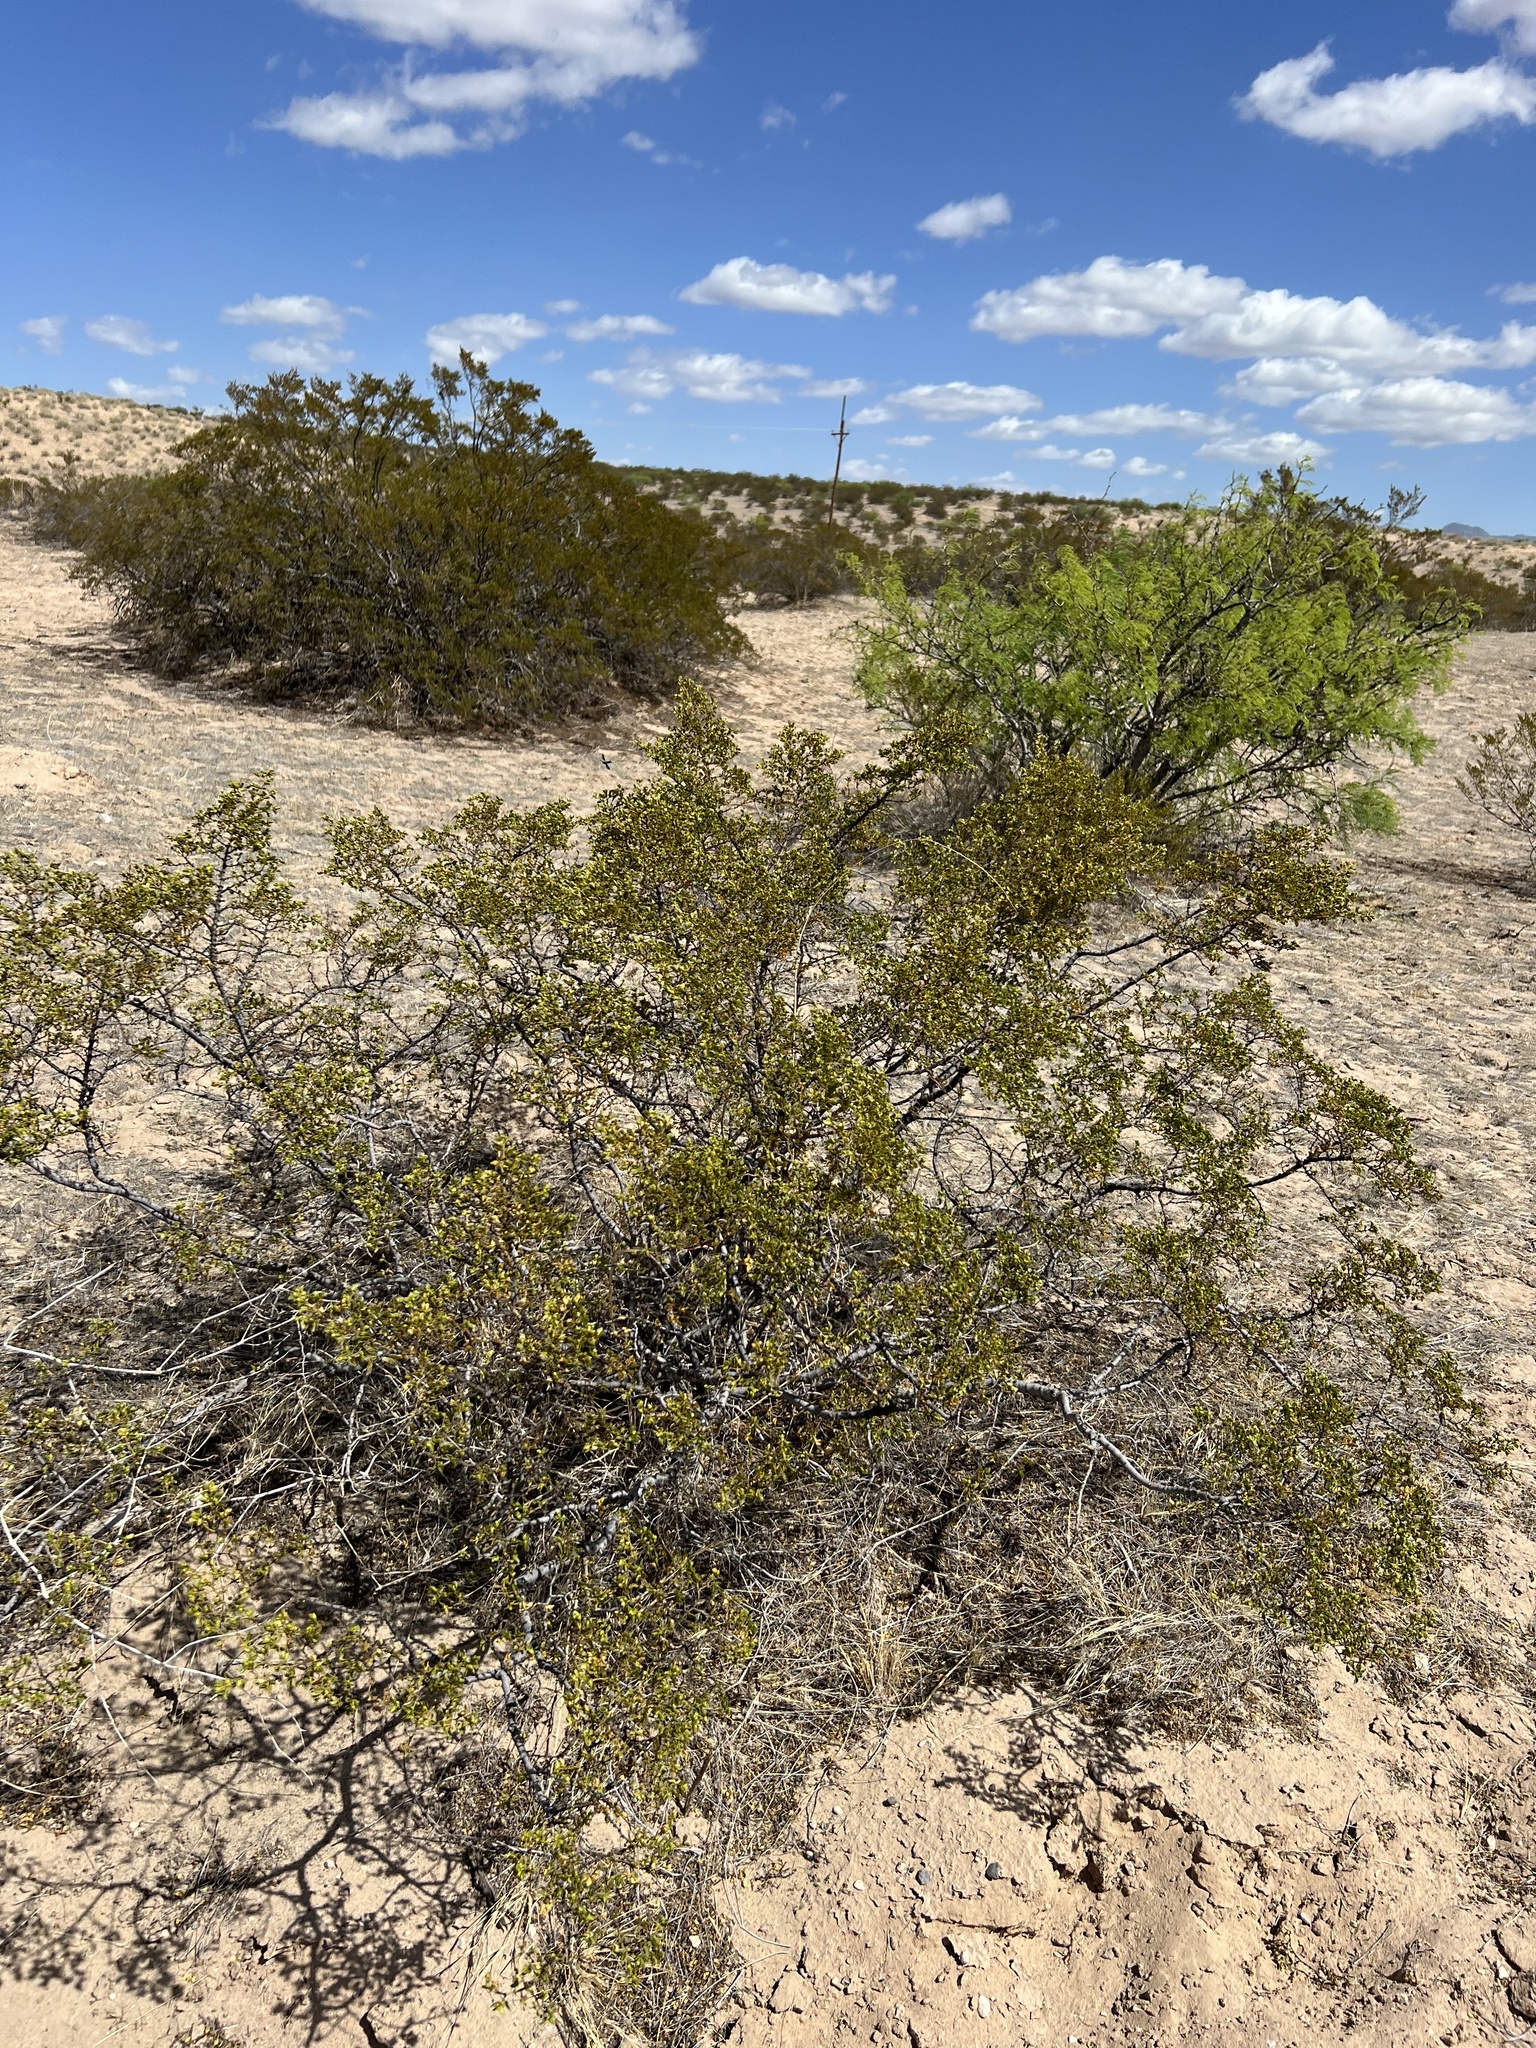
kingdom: Plantae
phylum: Tracheophyta
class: Magnoliopsida
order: Zygophyllales
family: Zygophyllaceae
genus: Larrea
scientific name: Larrea tridentata
